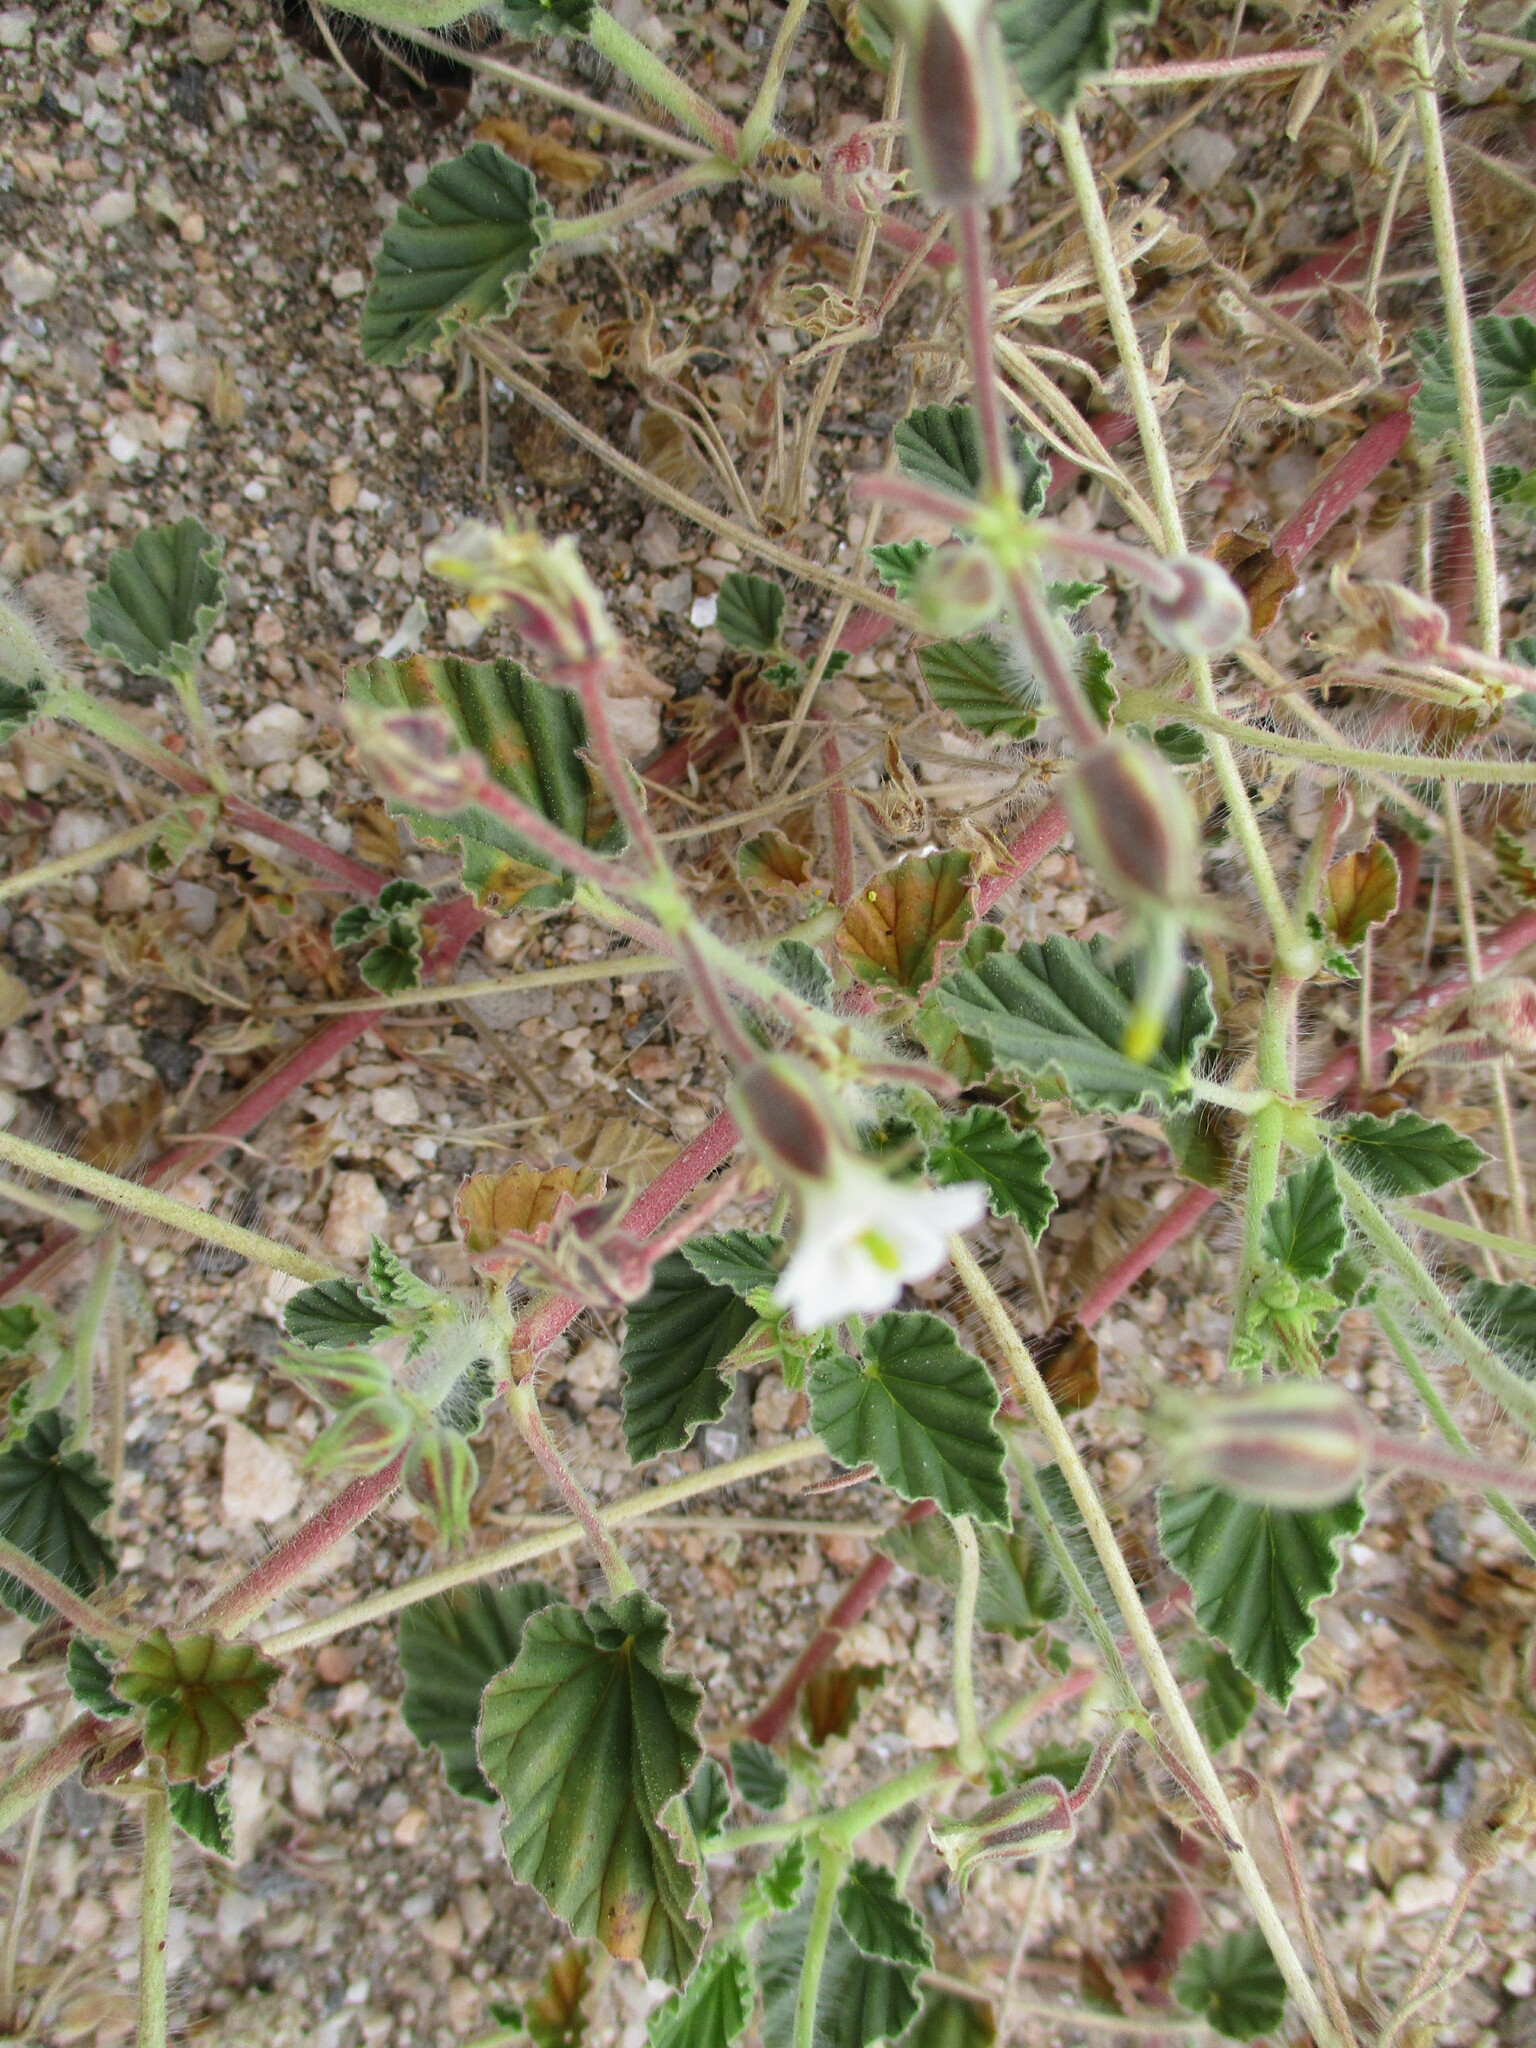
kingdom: Plantae
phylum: Tracheophyta
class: Magnoliopsida
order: Geraniales
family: Geraniaceae
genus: Monsonia
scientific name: Monsonia umbellata
